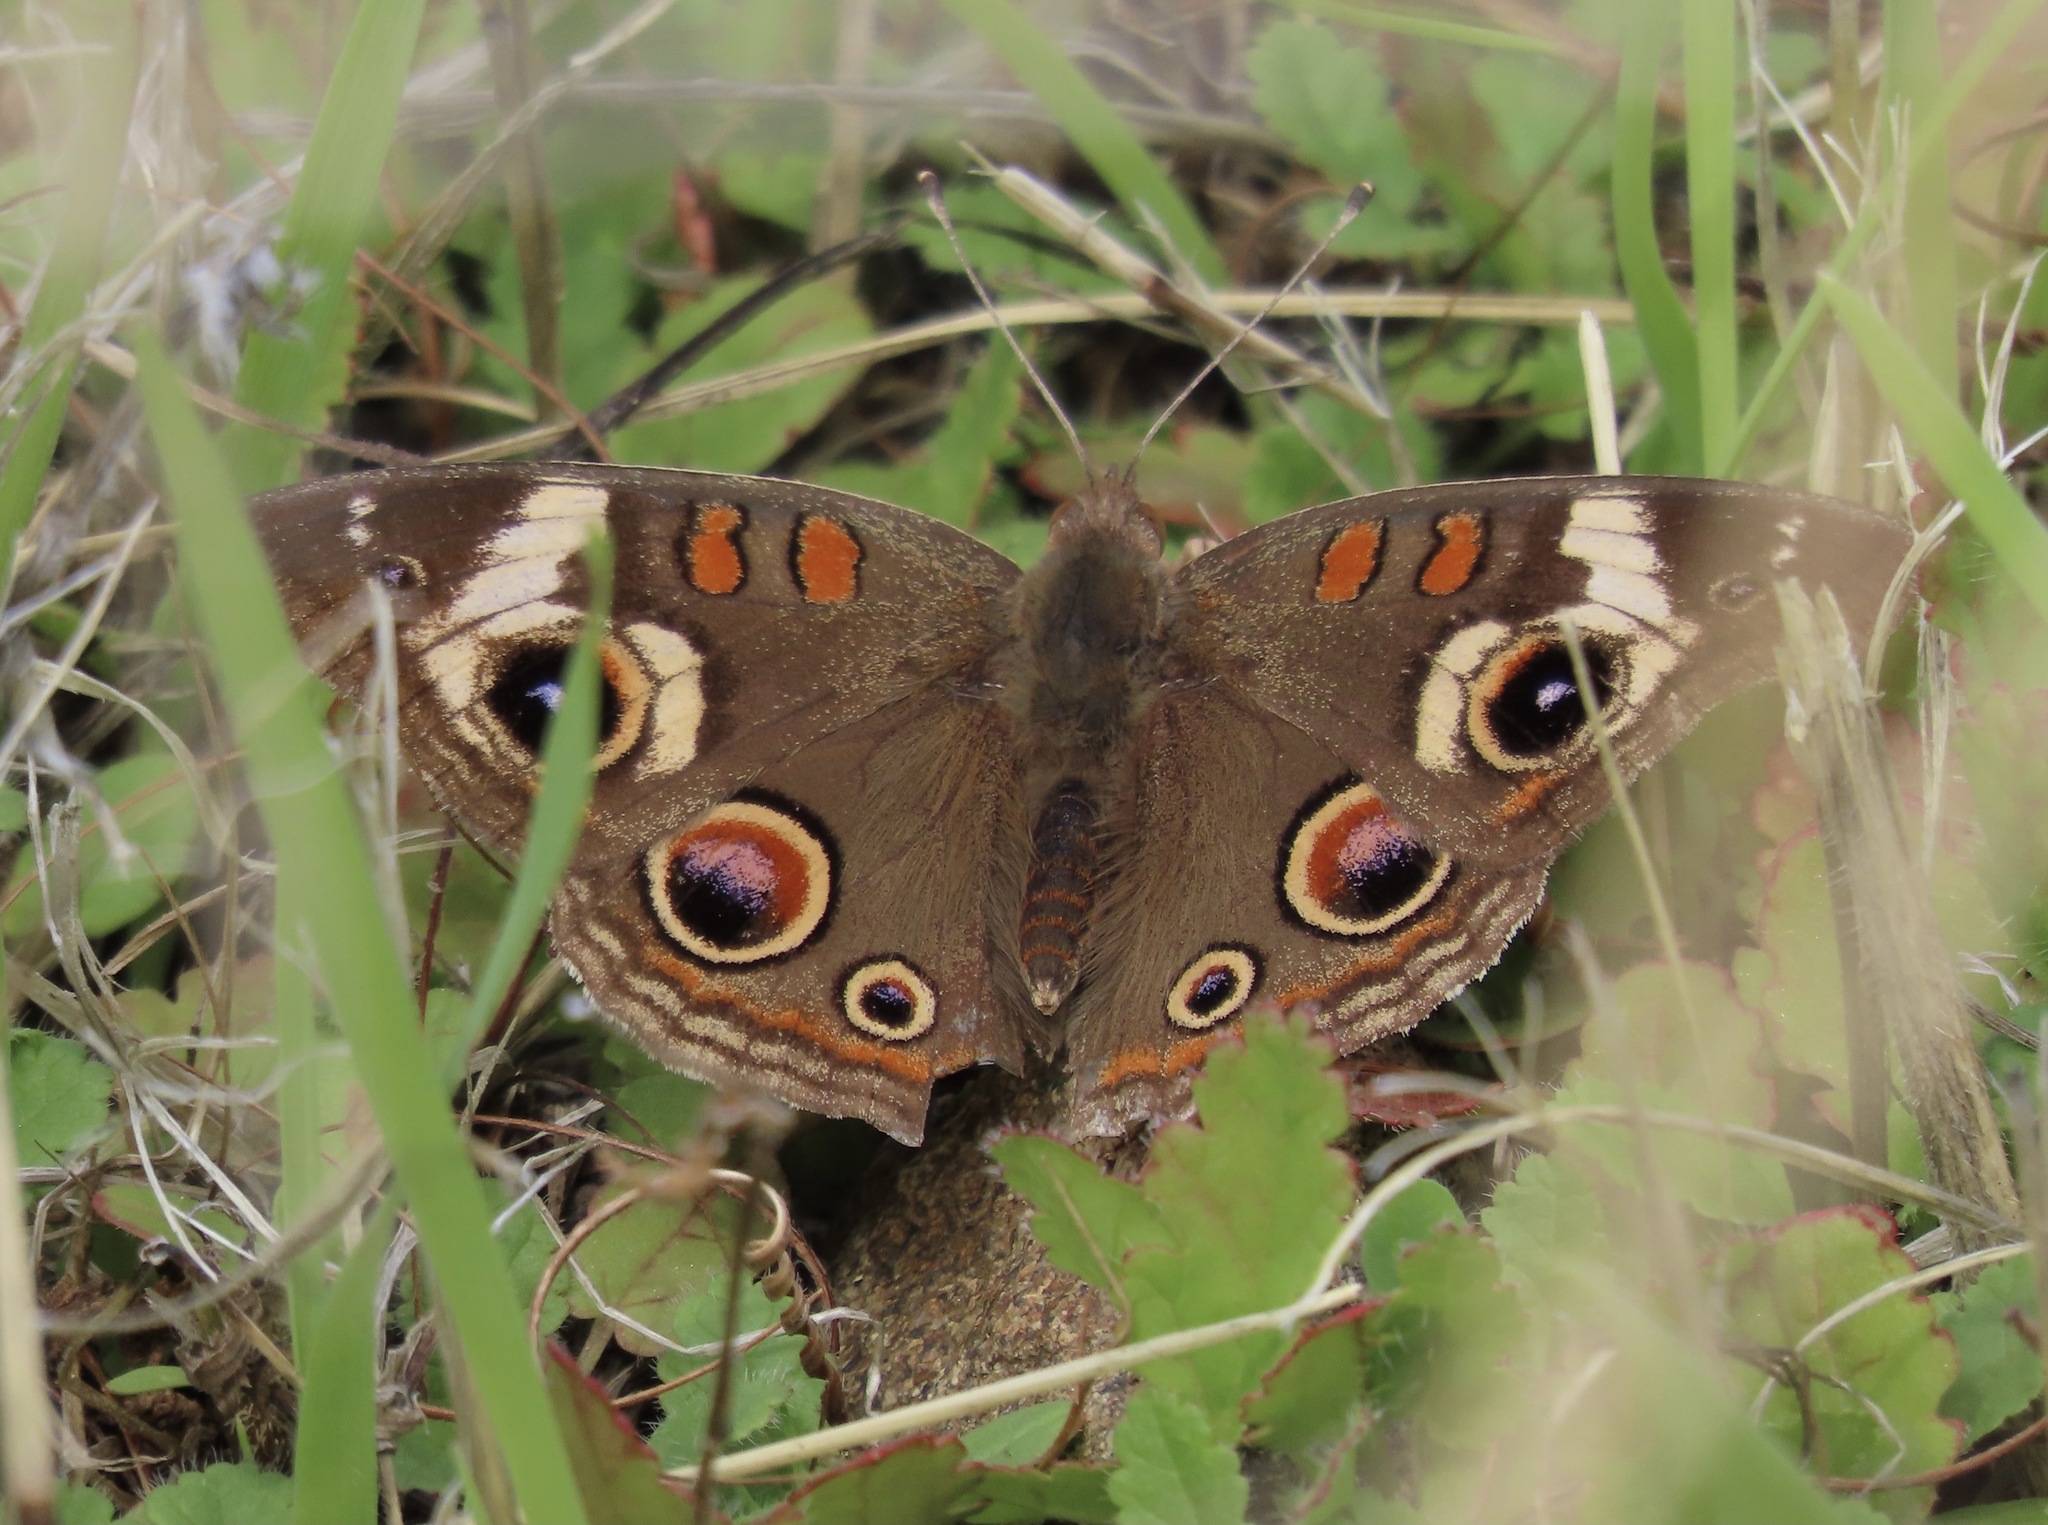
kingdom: Animalia
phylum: Arthropoda
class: Insecta
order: Lepidoptera
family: Nymphalidae
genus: Junonia
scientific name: Junonia grisea
